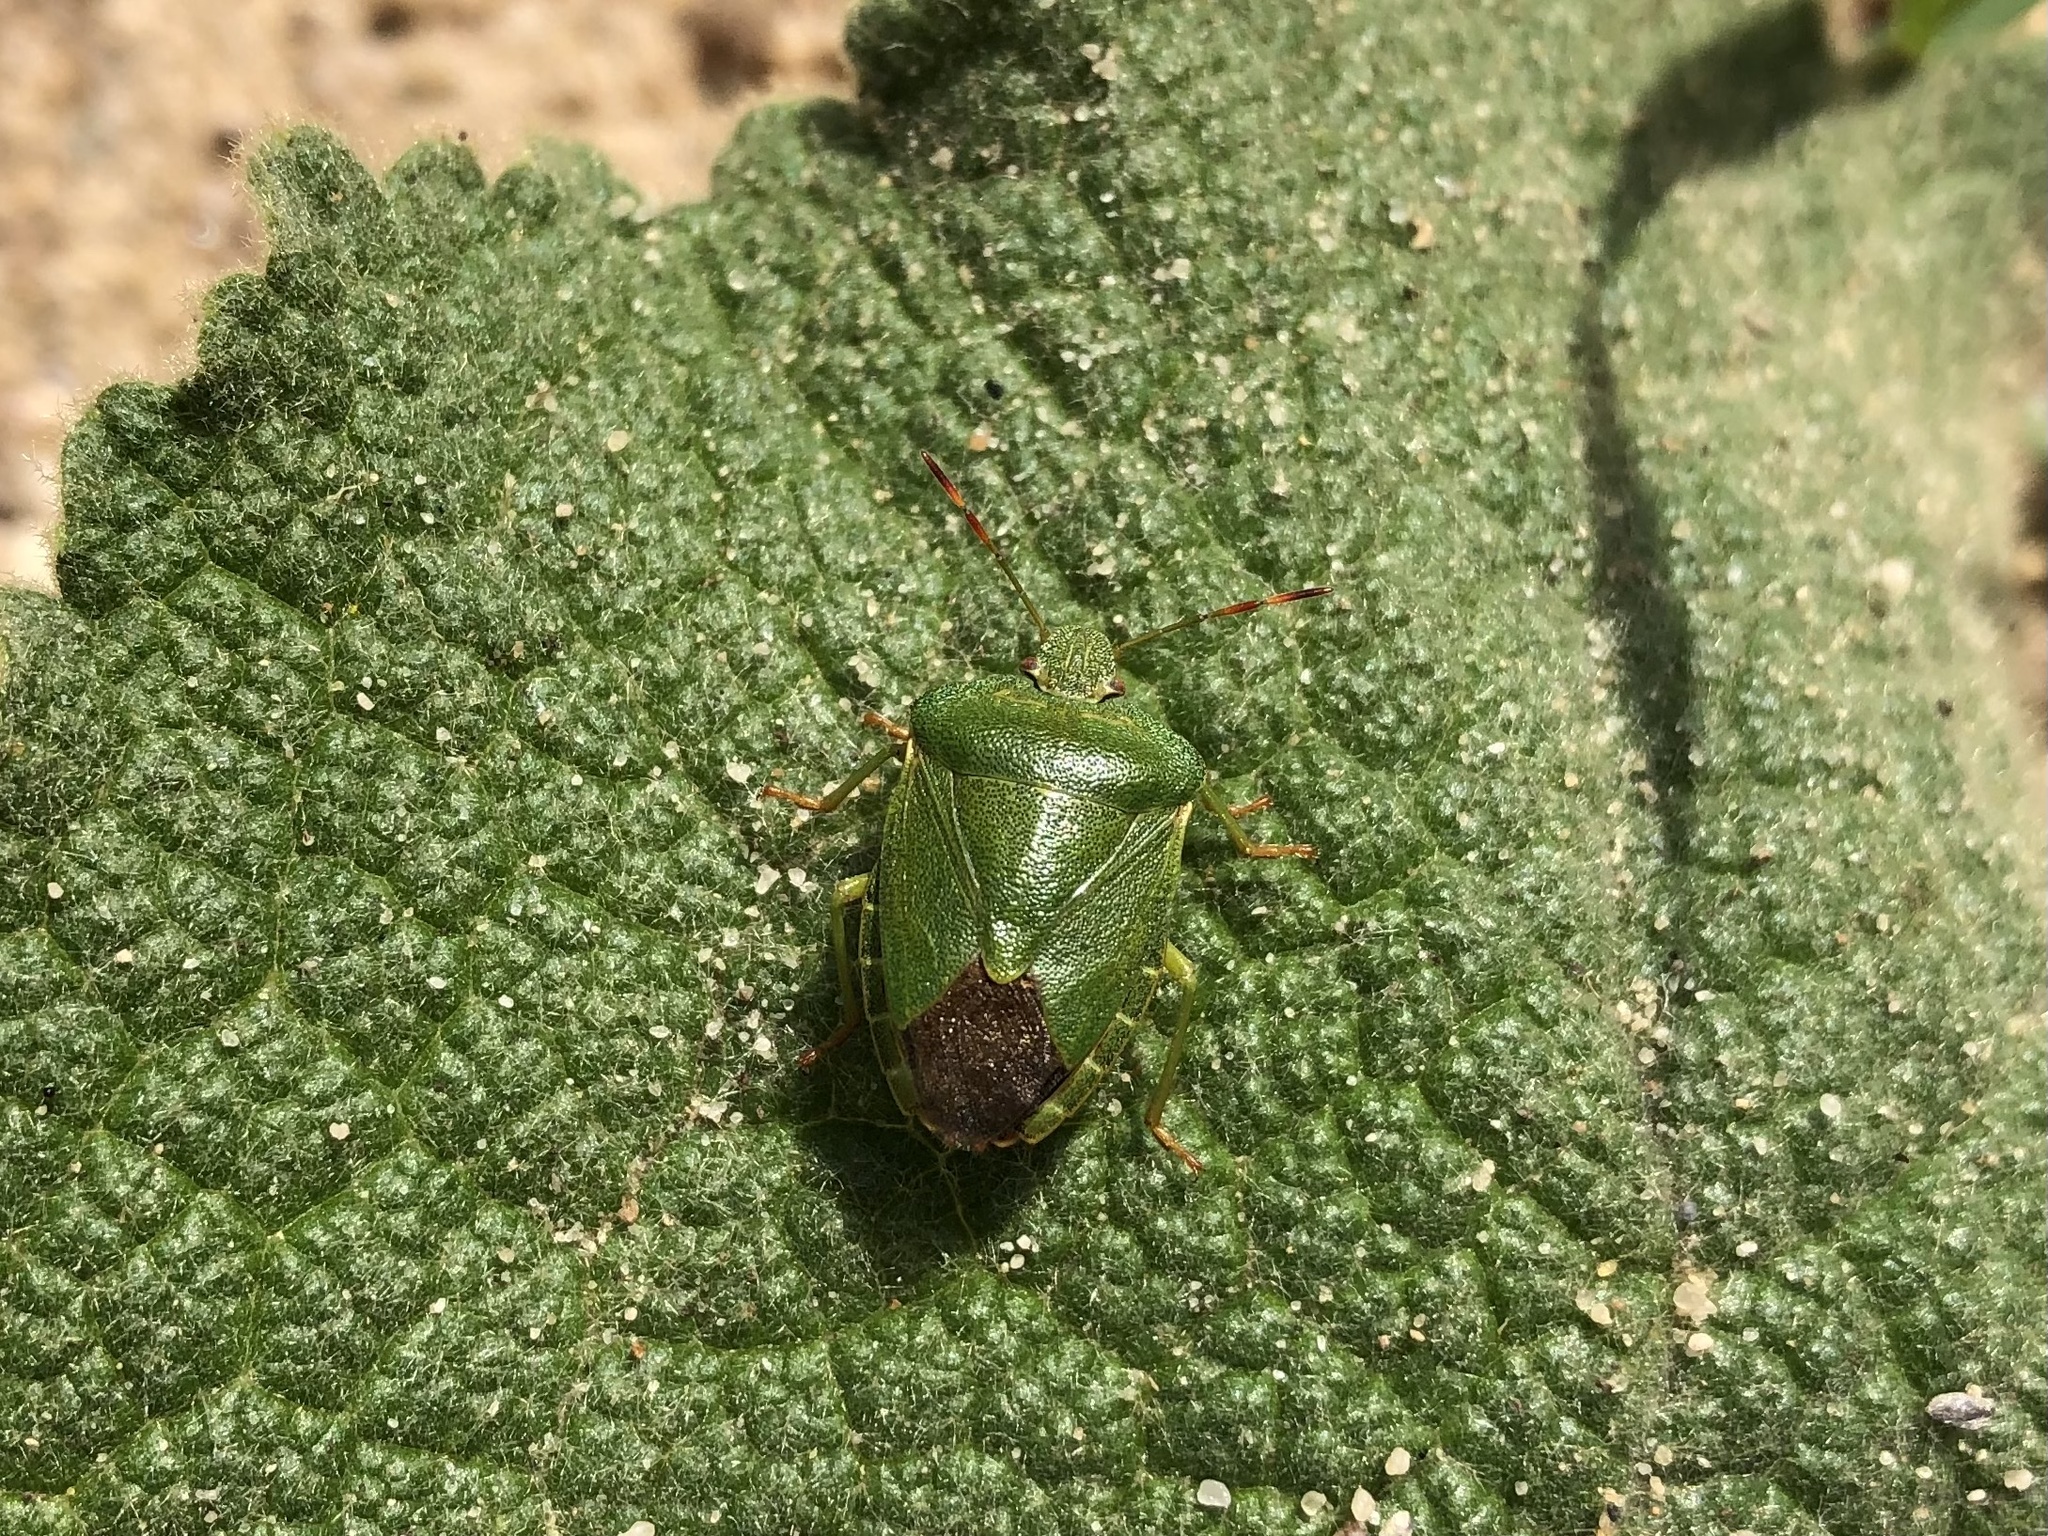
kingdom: Animalia
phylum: Arthropoda
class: Insecta
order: Hemiptera
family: Pentatomidae
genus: Palomena
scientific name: Palomena prasina
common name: Green shieldbug
